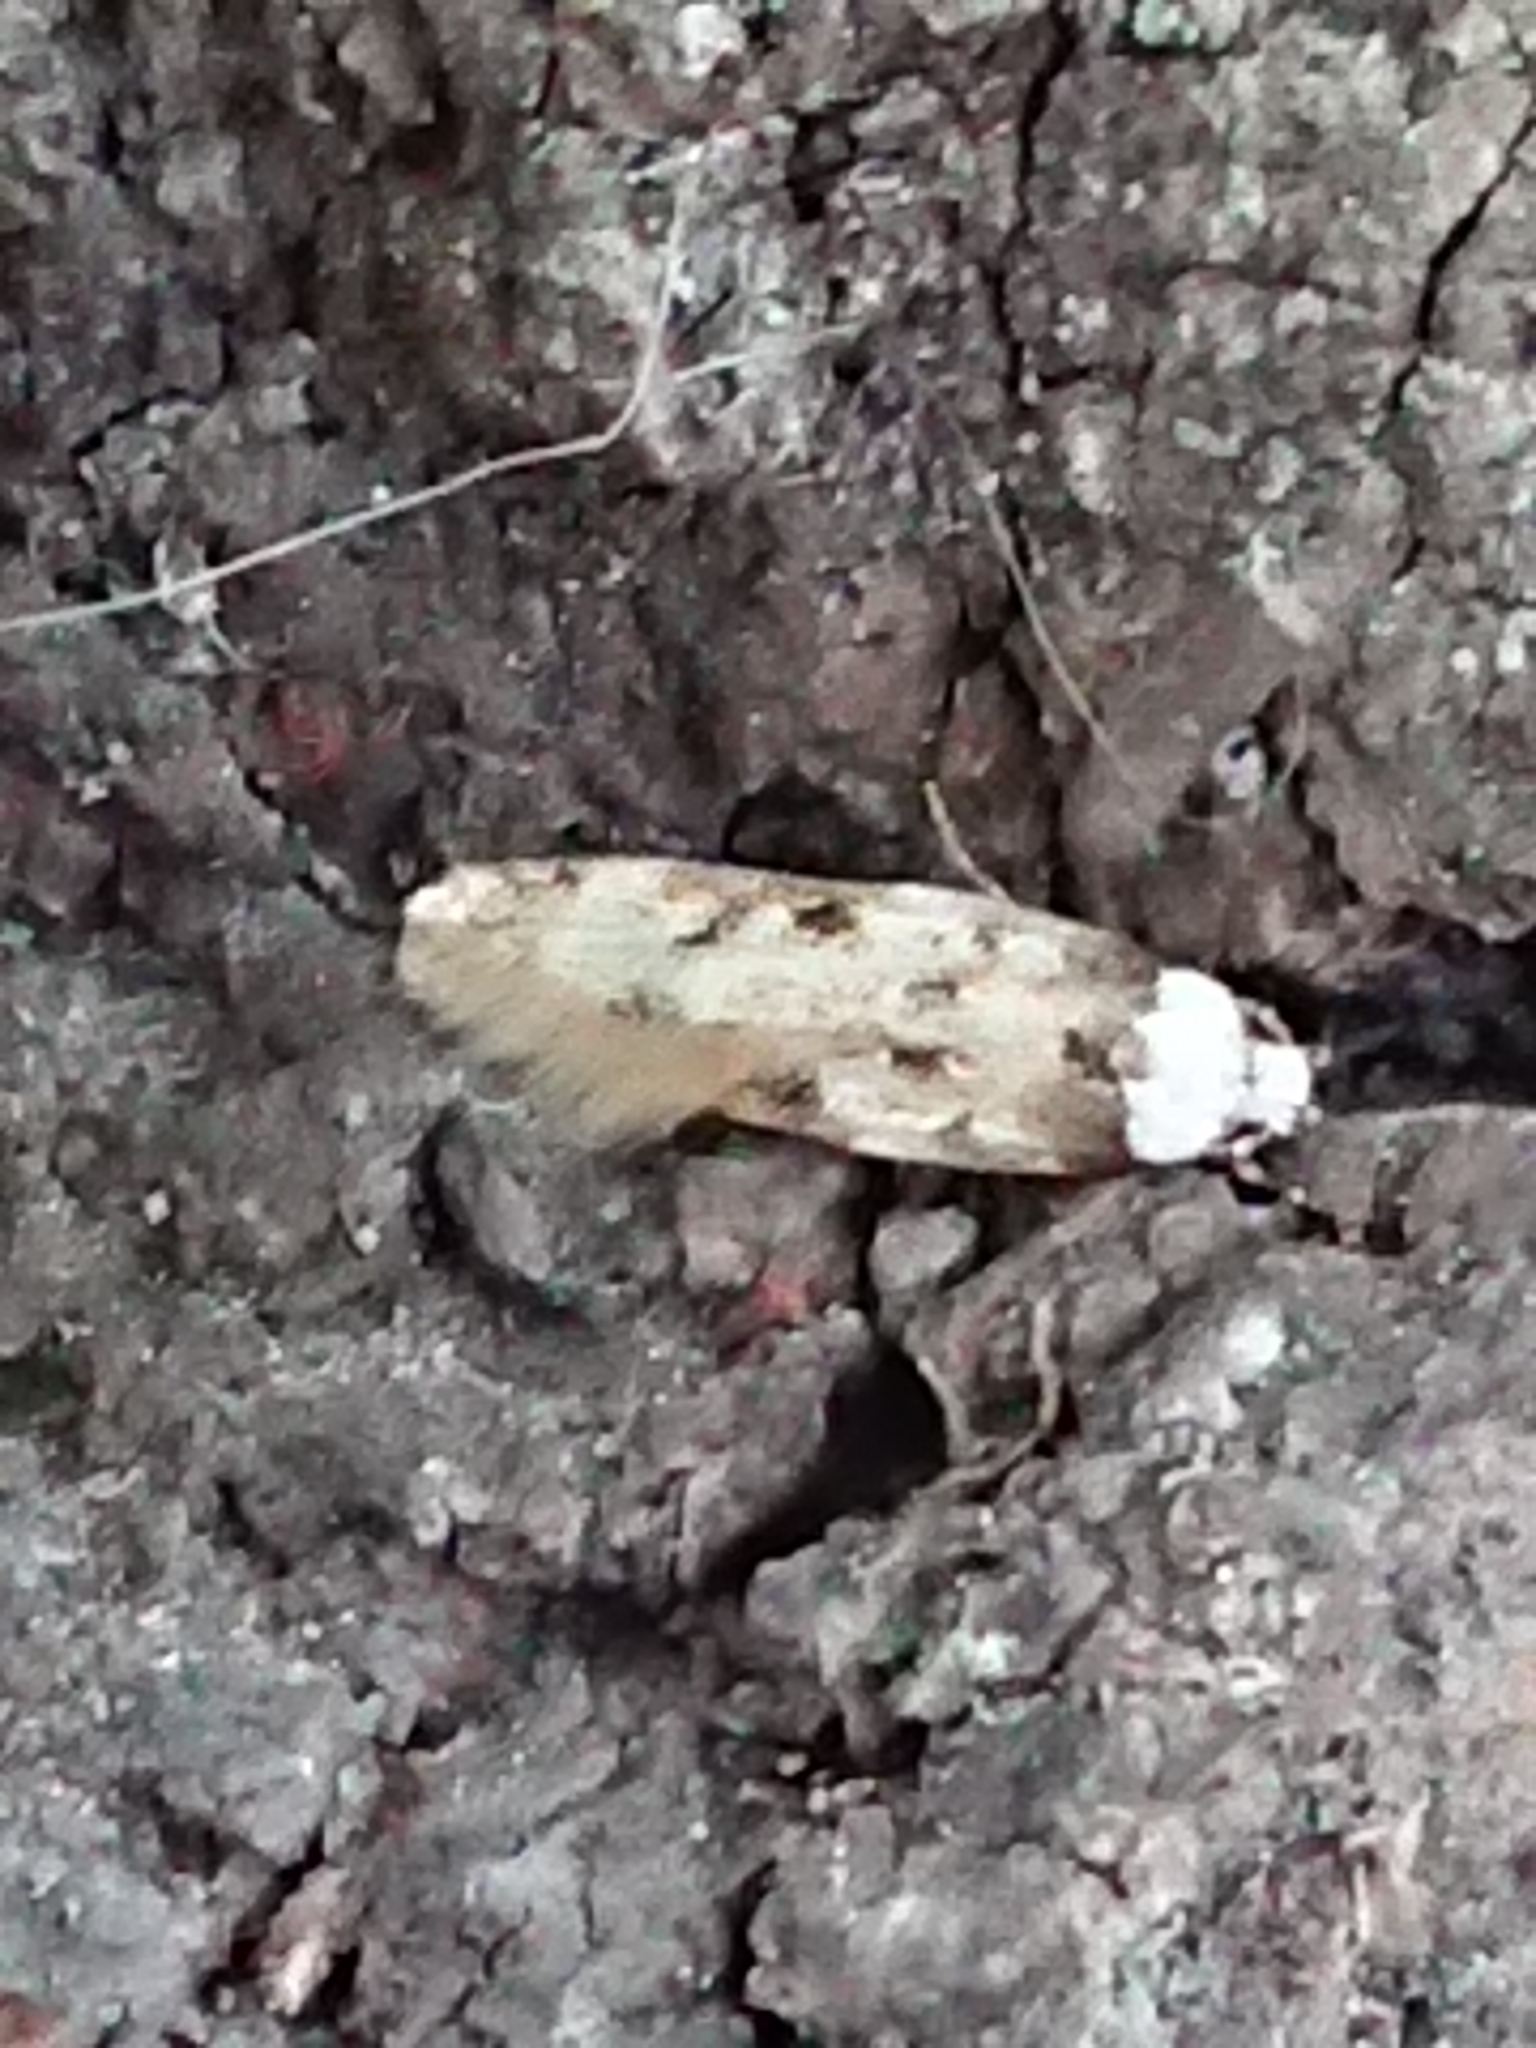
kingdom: Animalia
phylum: Arthropoda
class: Insecta
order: Lepidoptera
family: Oecophoridae
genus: Endrosis
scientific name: Endrosis sarcitrella
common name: White-shouldered house moth
